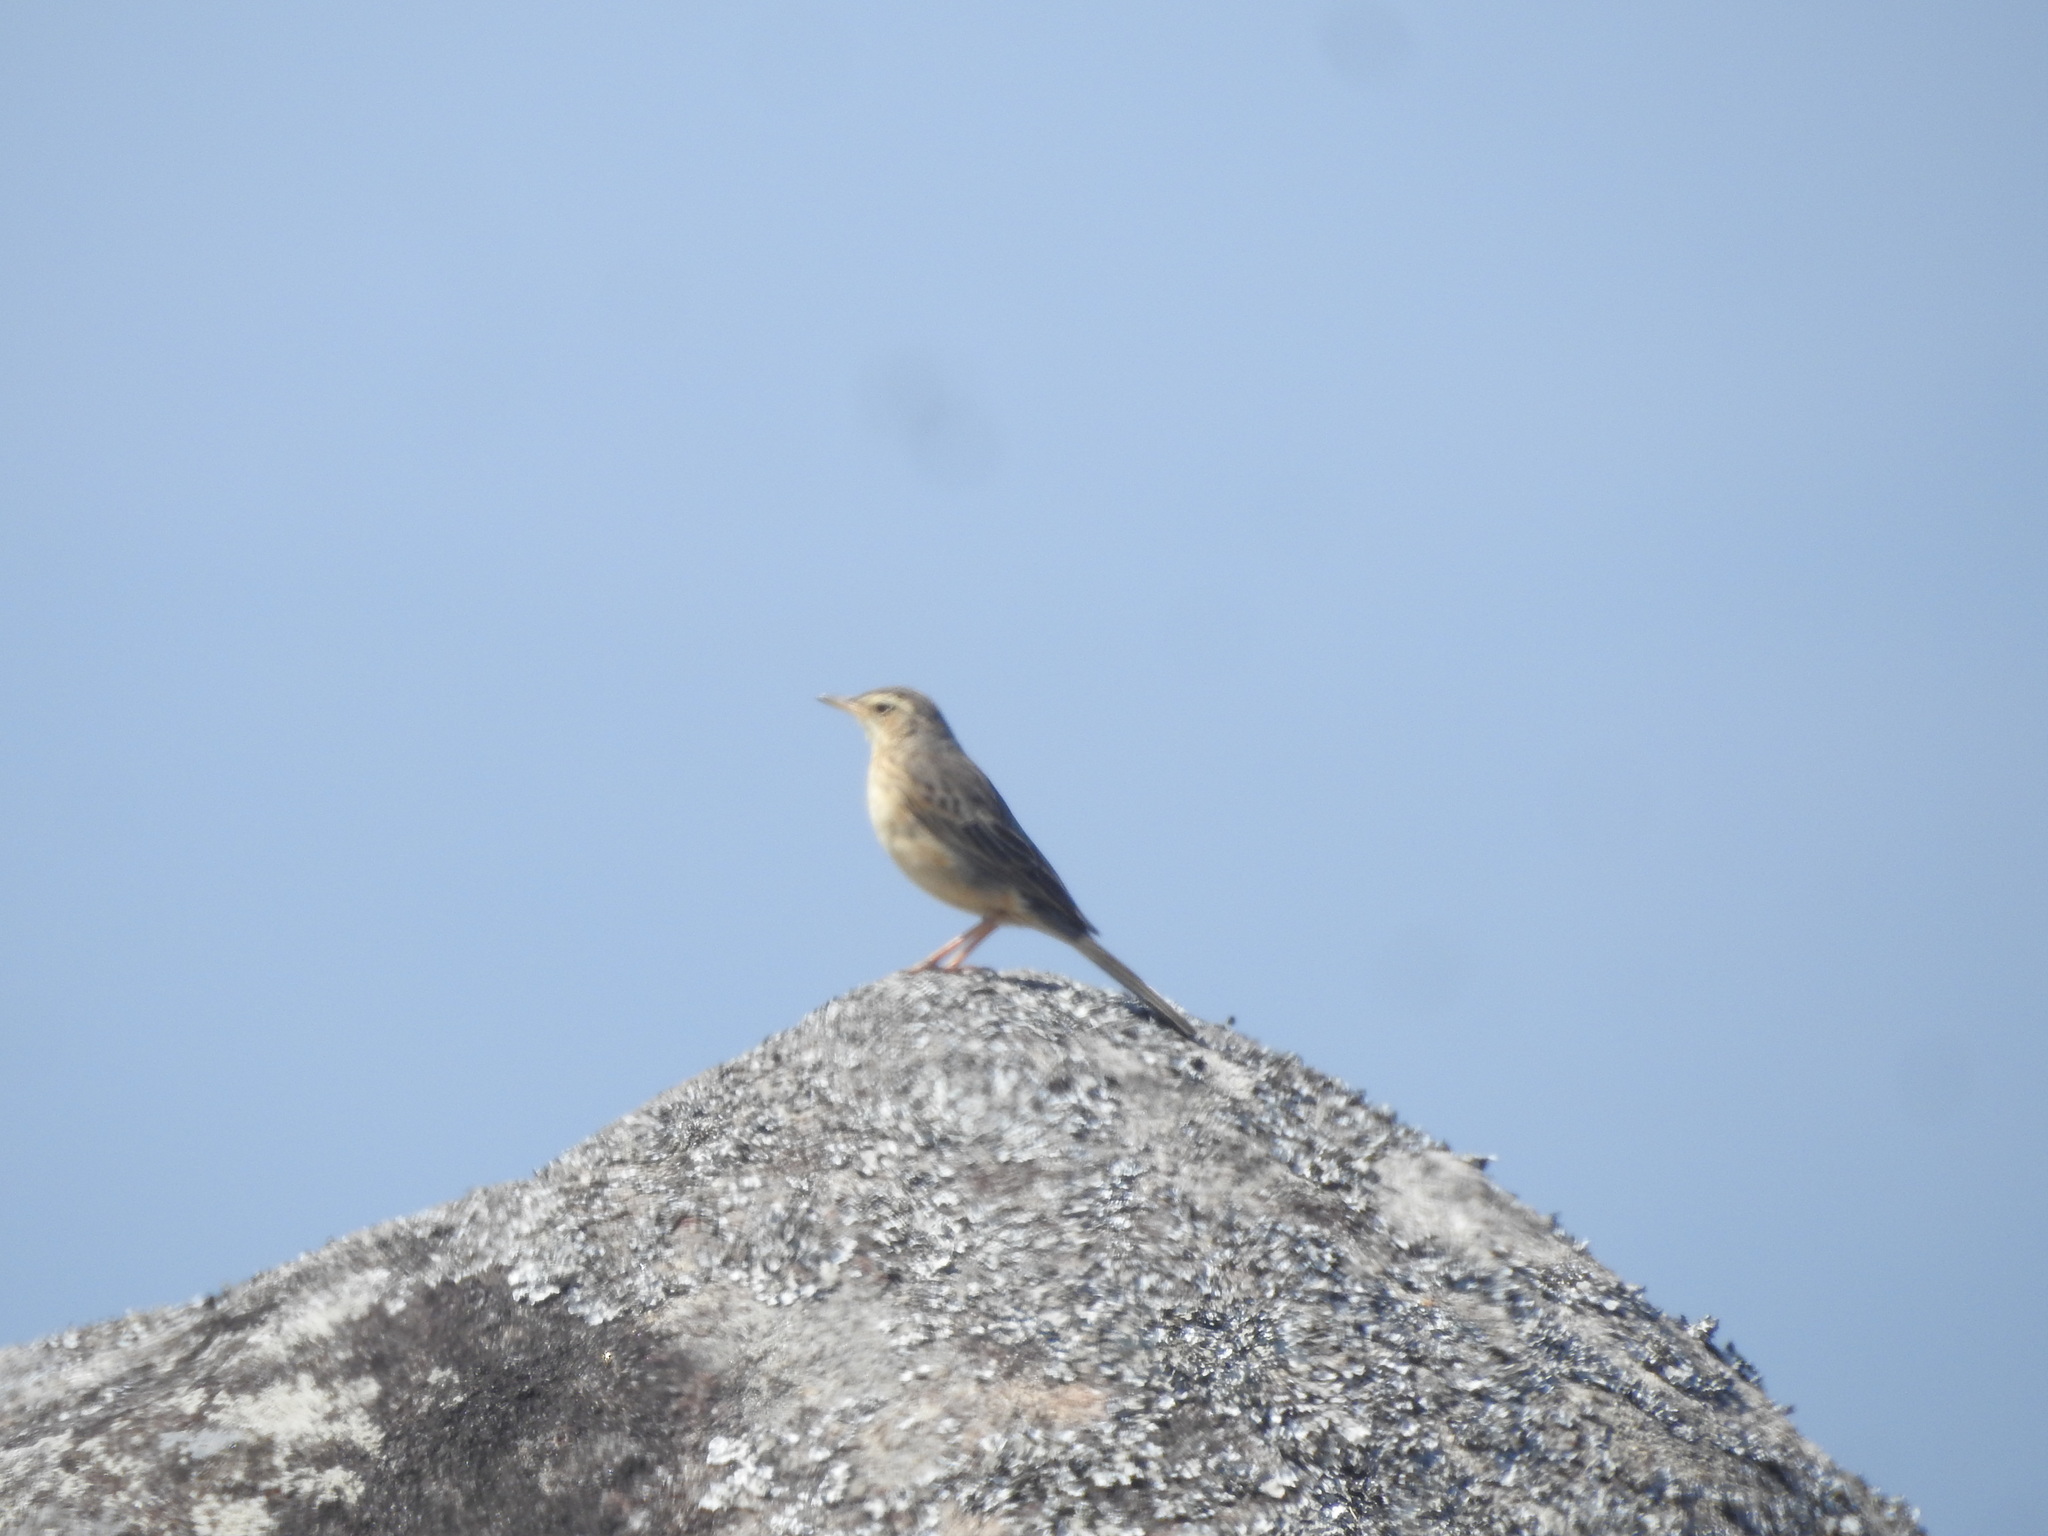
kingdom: Animalia
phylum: Chordata
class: Aves
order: Passeriformes
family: Motacillidae
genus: Anthus
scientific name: Anthus similis
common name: Long-billed pipit
